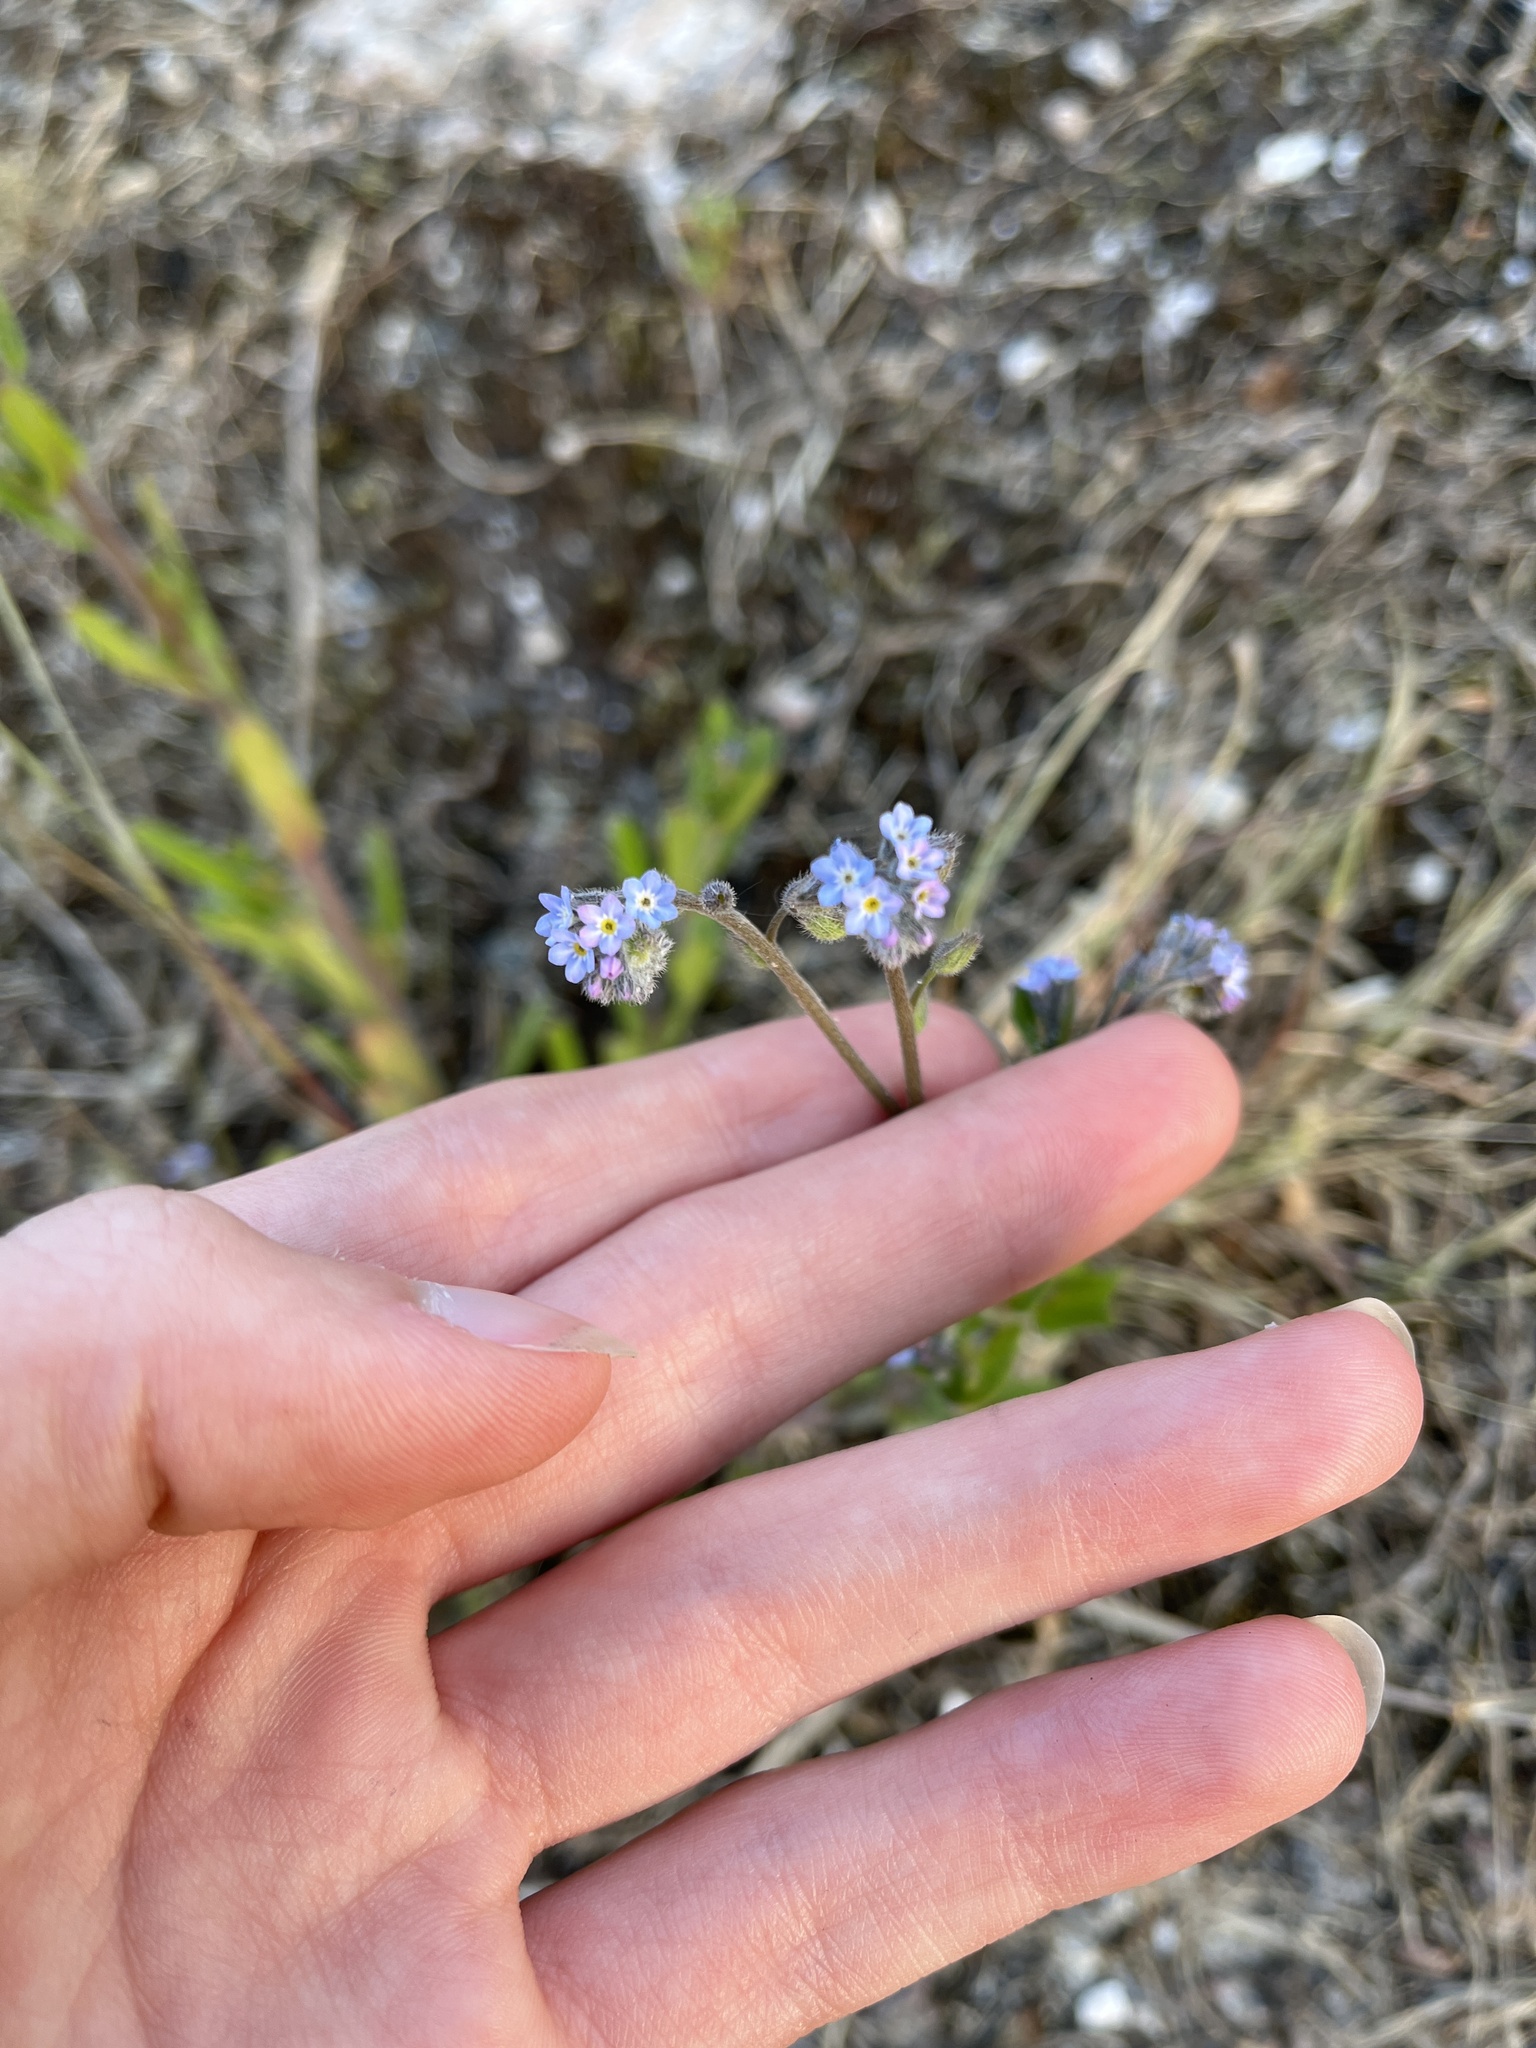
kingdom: Plantae
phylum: Tracheophyta
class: Magnoliopsida
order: Boraginales
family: Boraginaceae
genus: Myosotis
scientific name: Myosotis arvensis
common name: Field forget-me-not
